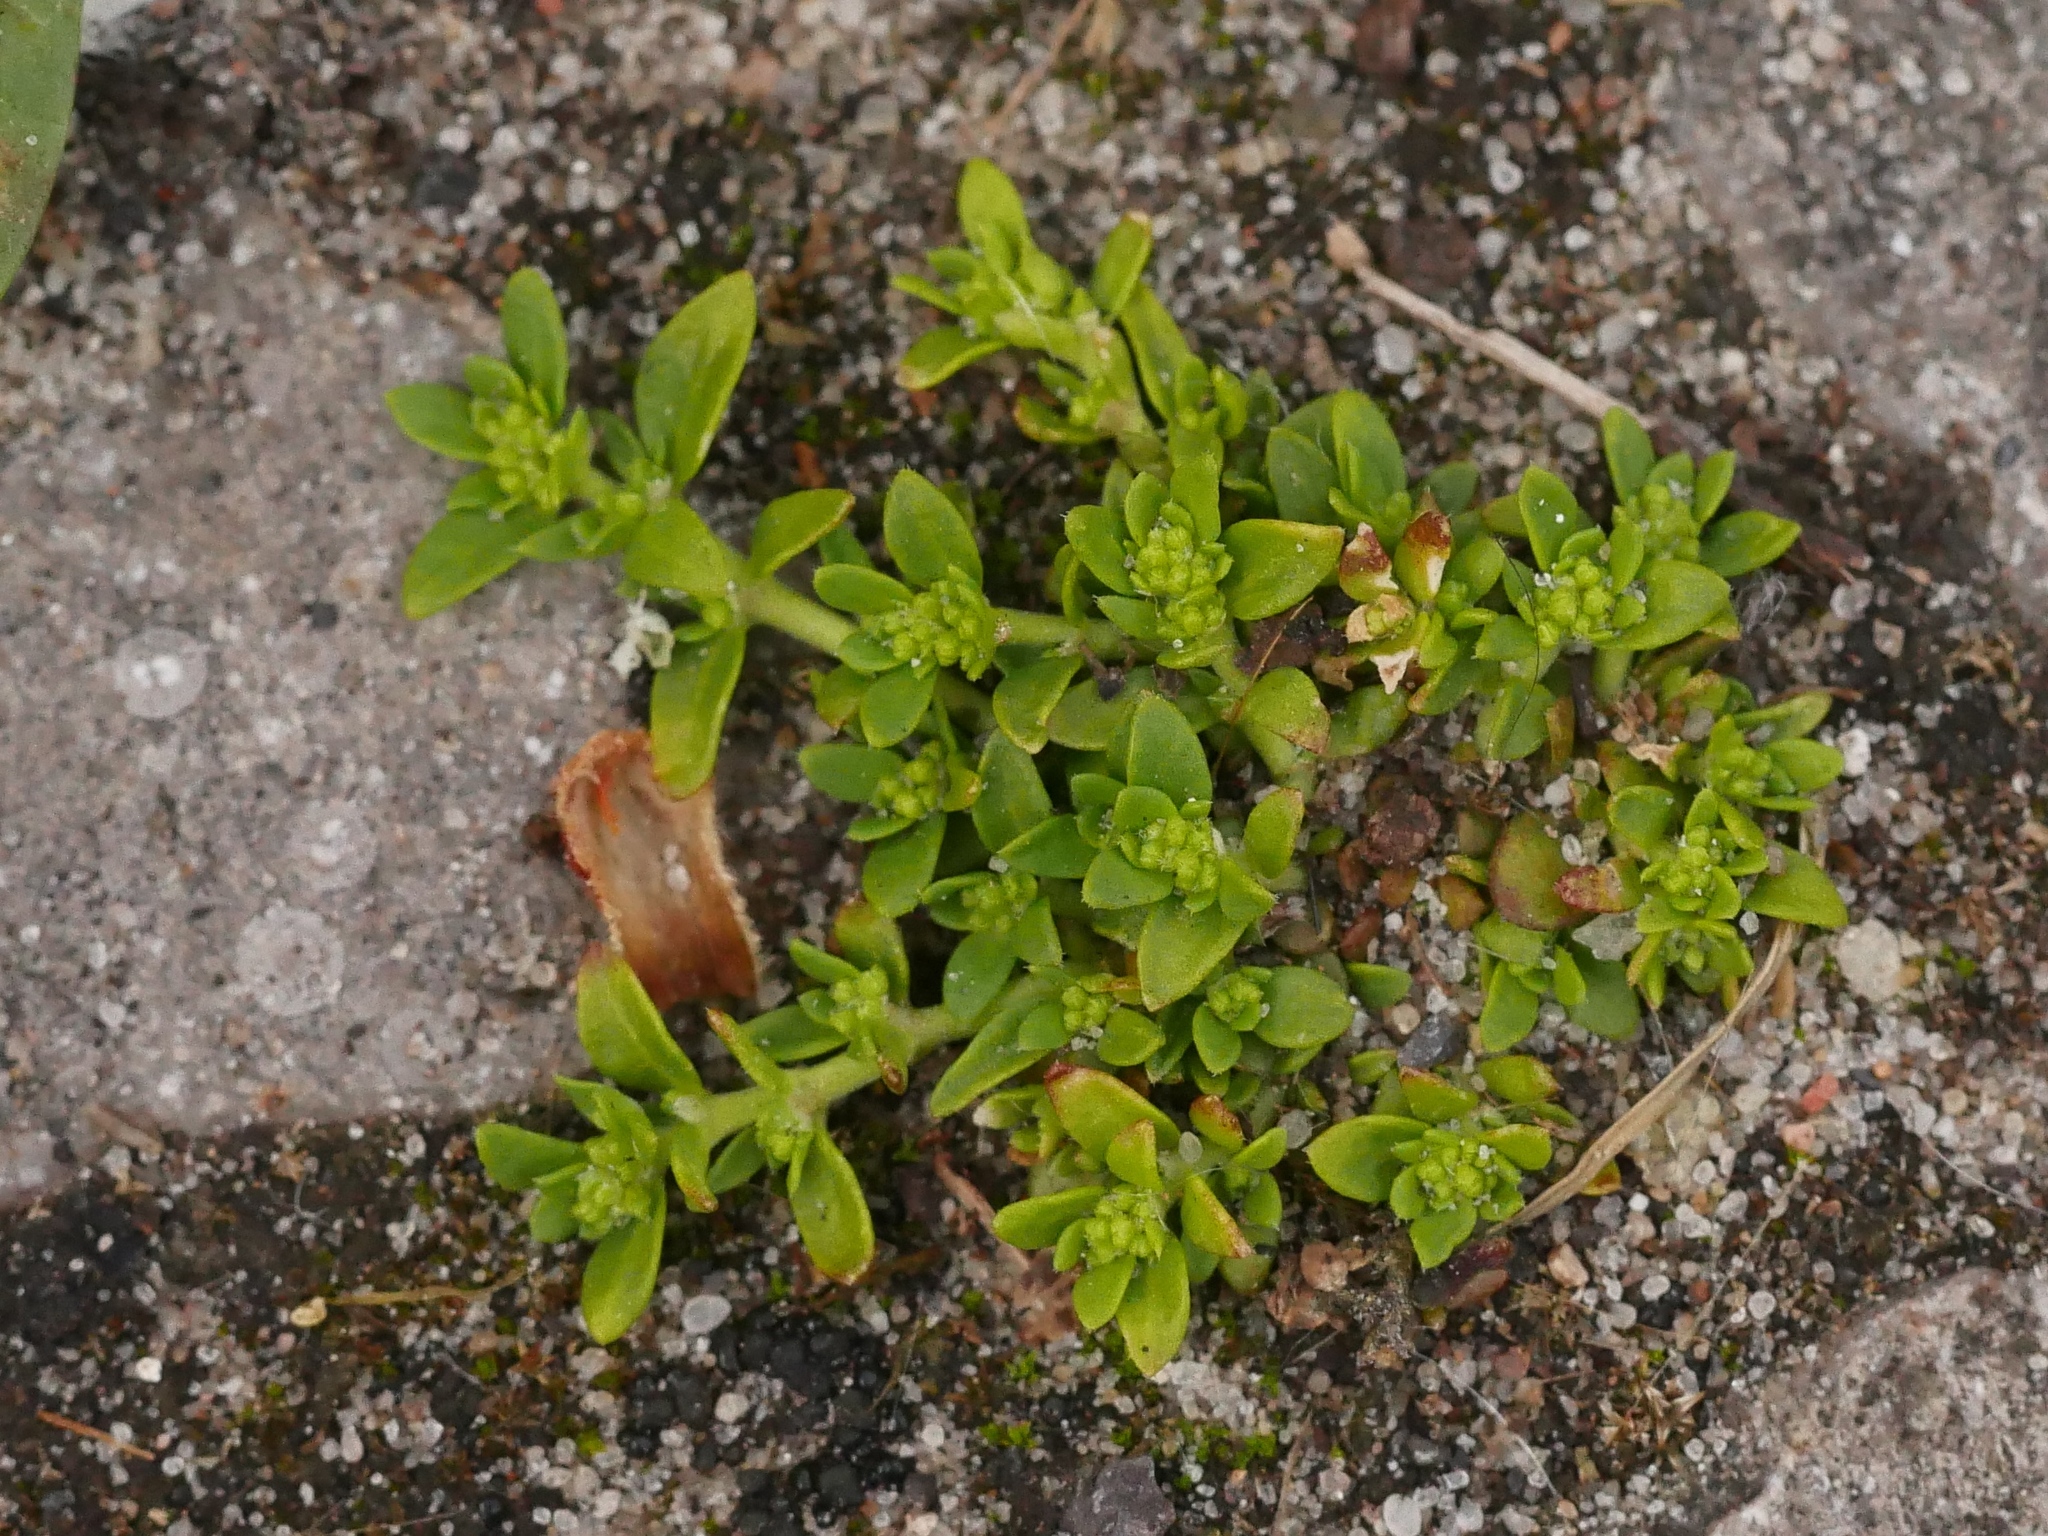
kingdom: Plantae
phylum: Tracheophyta
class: Magnoliopsida
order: Caryophyllales
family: Caryophyllaceae
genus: Herniaria
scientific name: Herniaria glabra
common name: Smooth rupturewort
